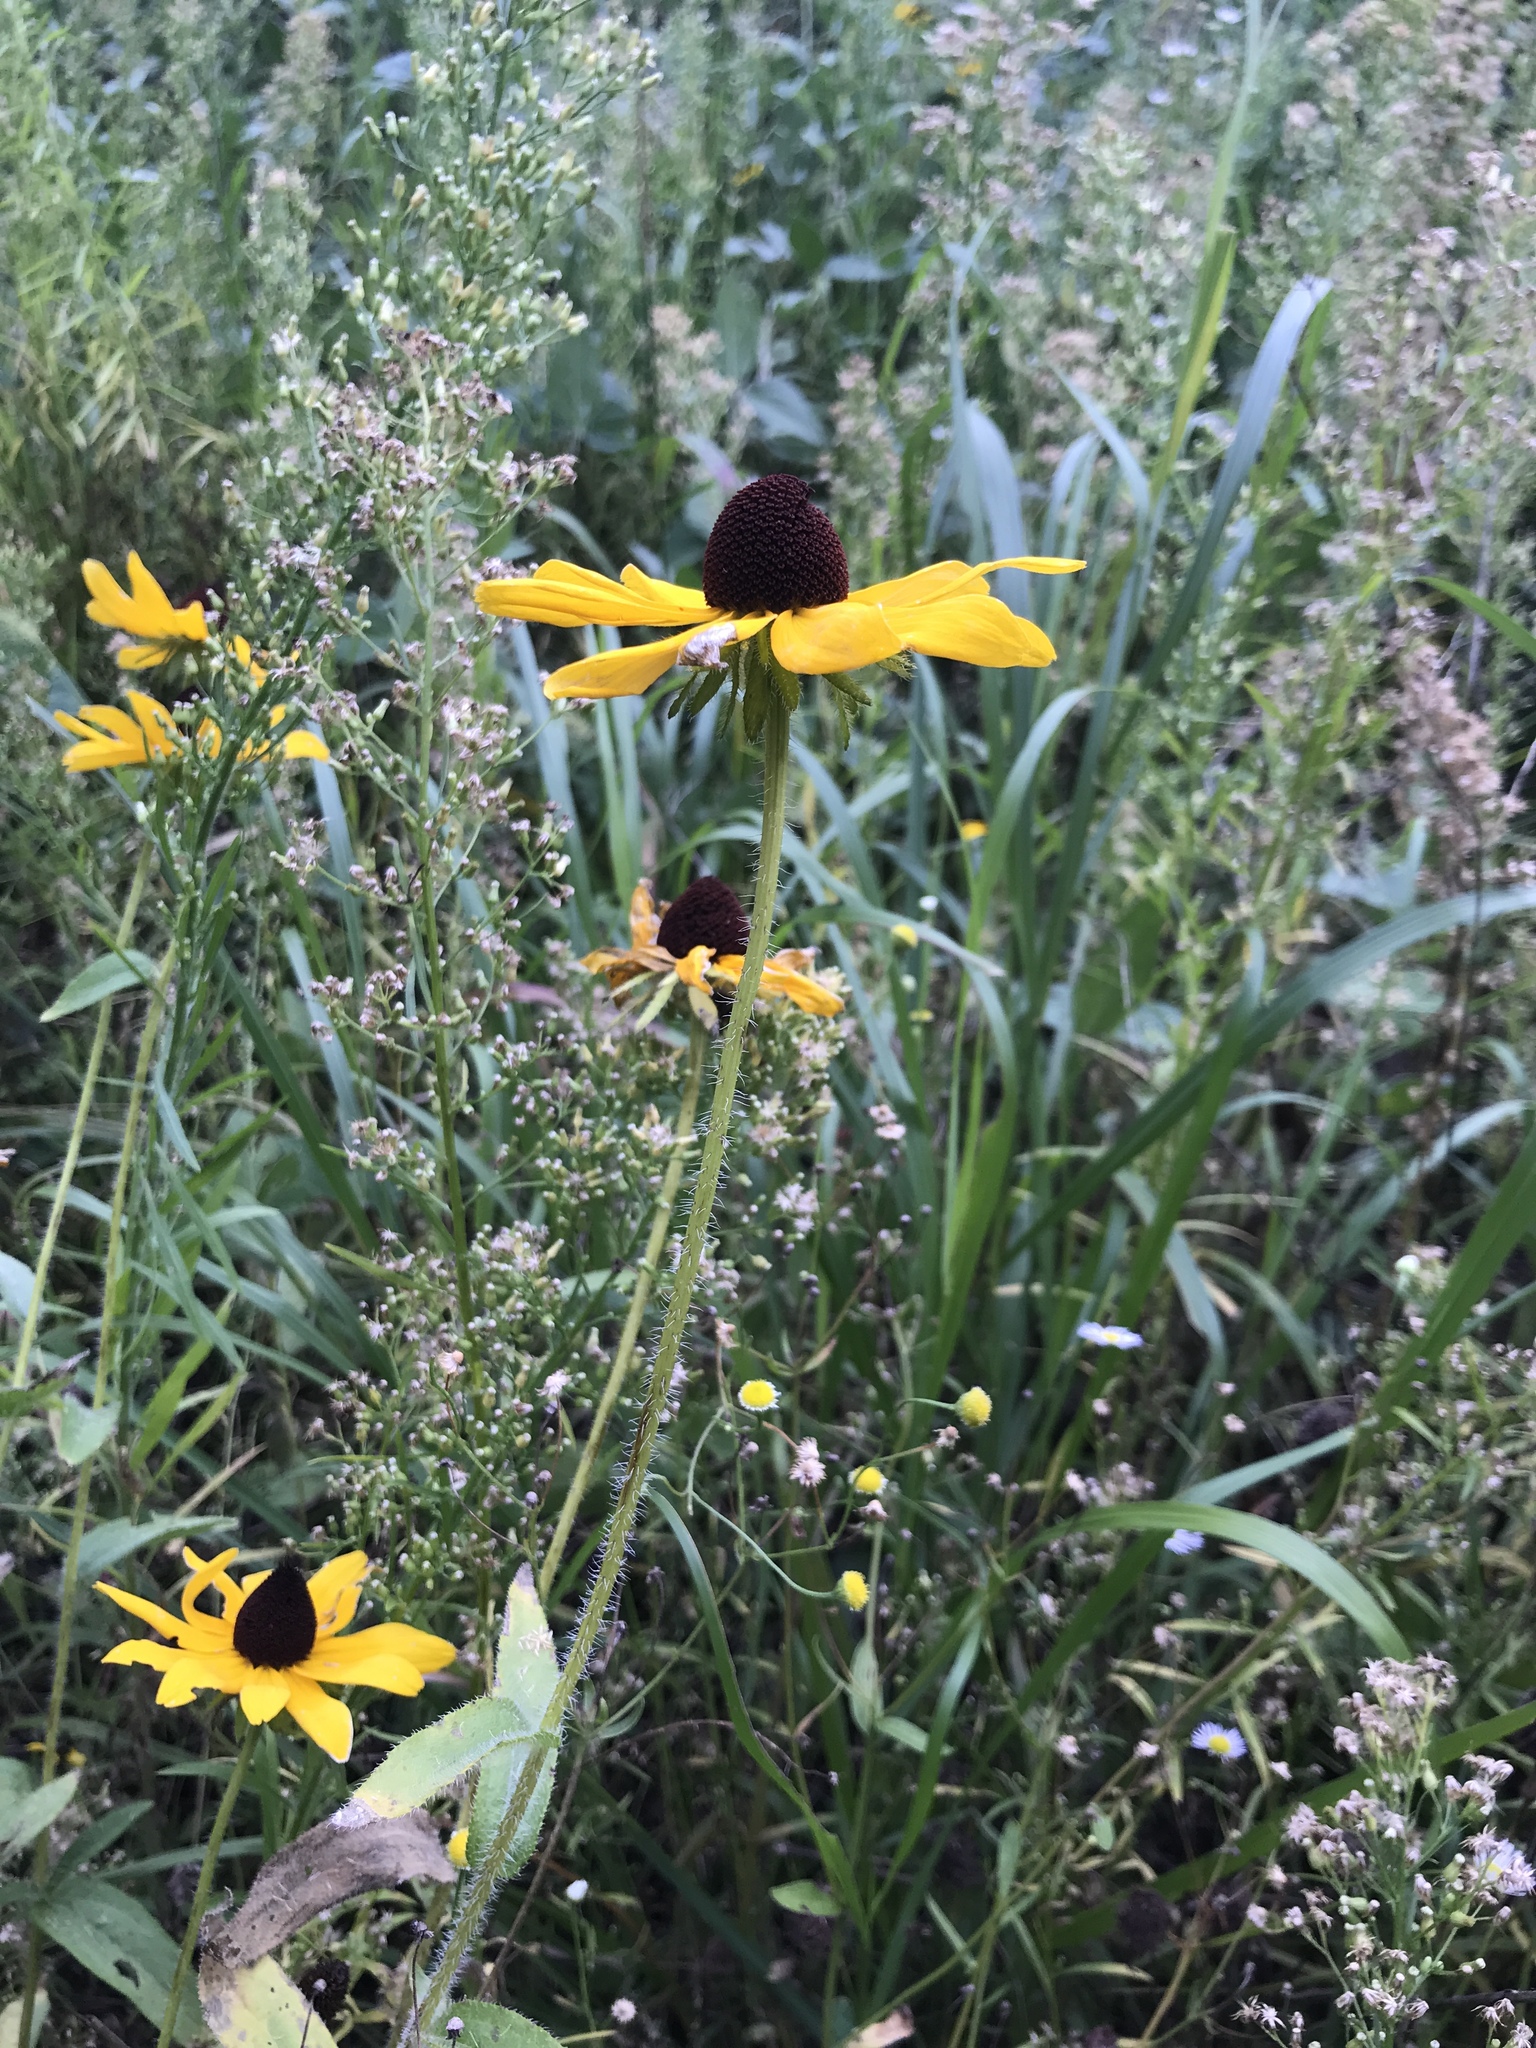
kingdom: Plantae
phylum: Tracheophyta
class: Magnoliopsida
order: Asterales
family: Asteraceae
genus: Rudbeckia
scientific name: Rudbeckia hirta
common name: Black-eyed-susan
